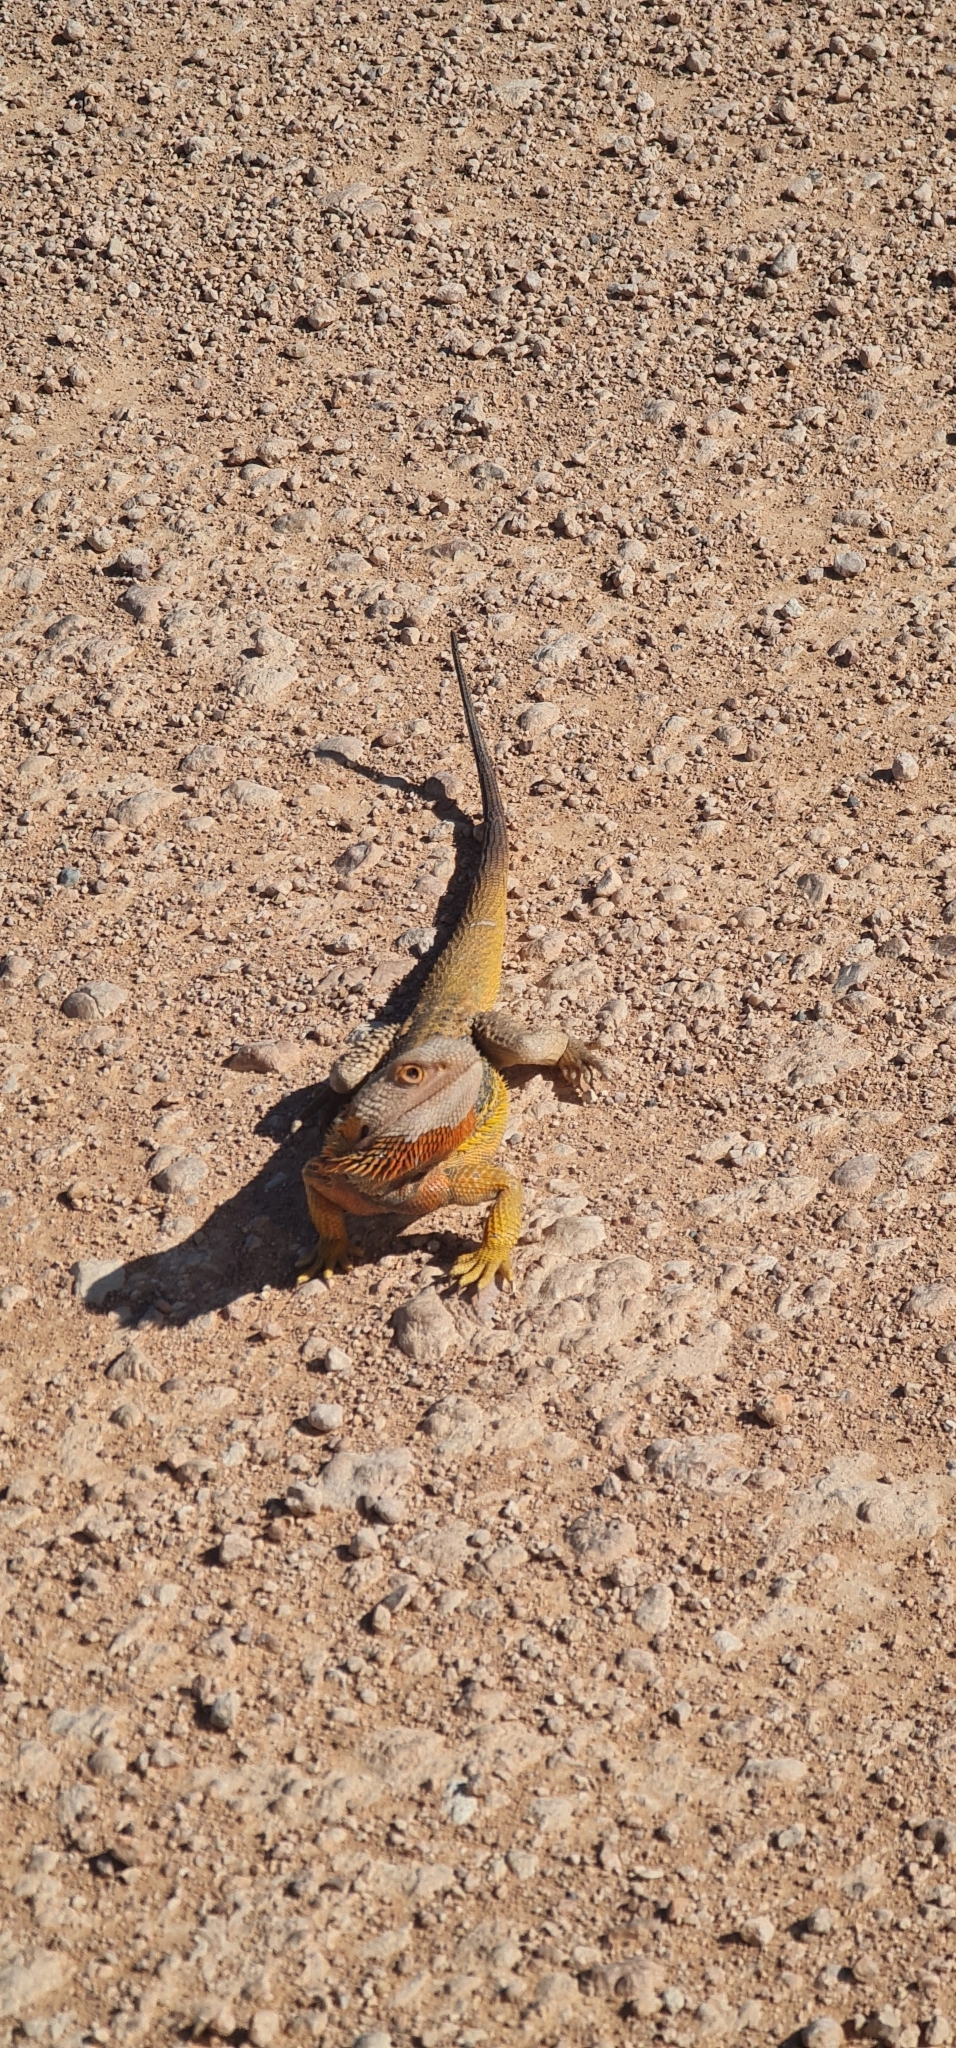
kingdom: Animalia
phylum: Chordata
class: Squamata
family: Agamidae
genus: Pogona
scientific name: Pogona vitticeps
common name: Central bearded dragon
